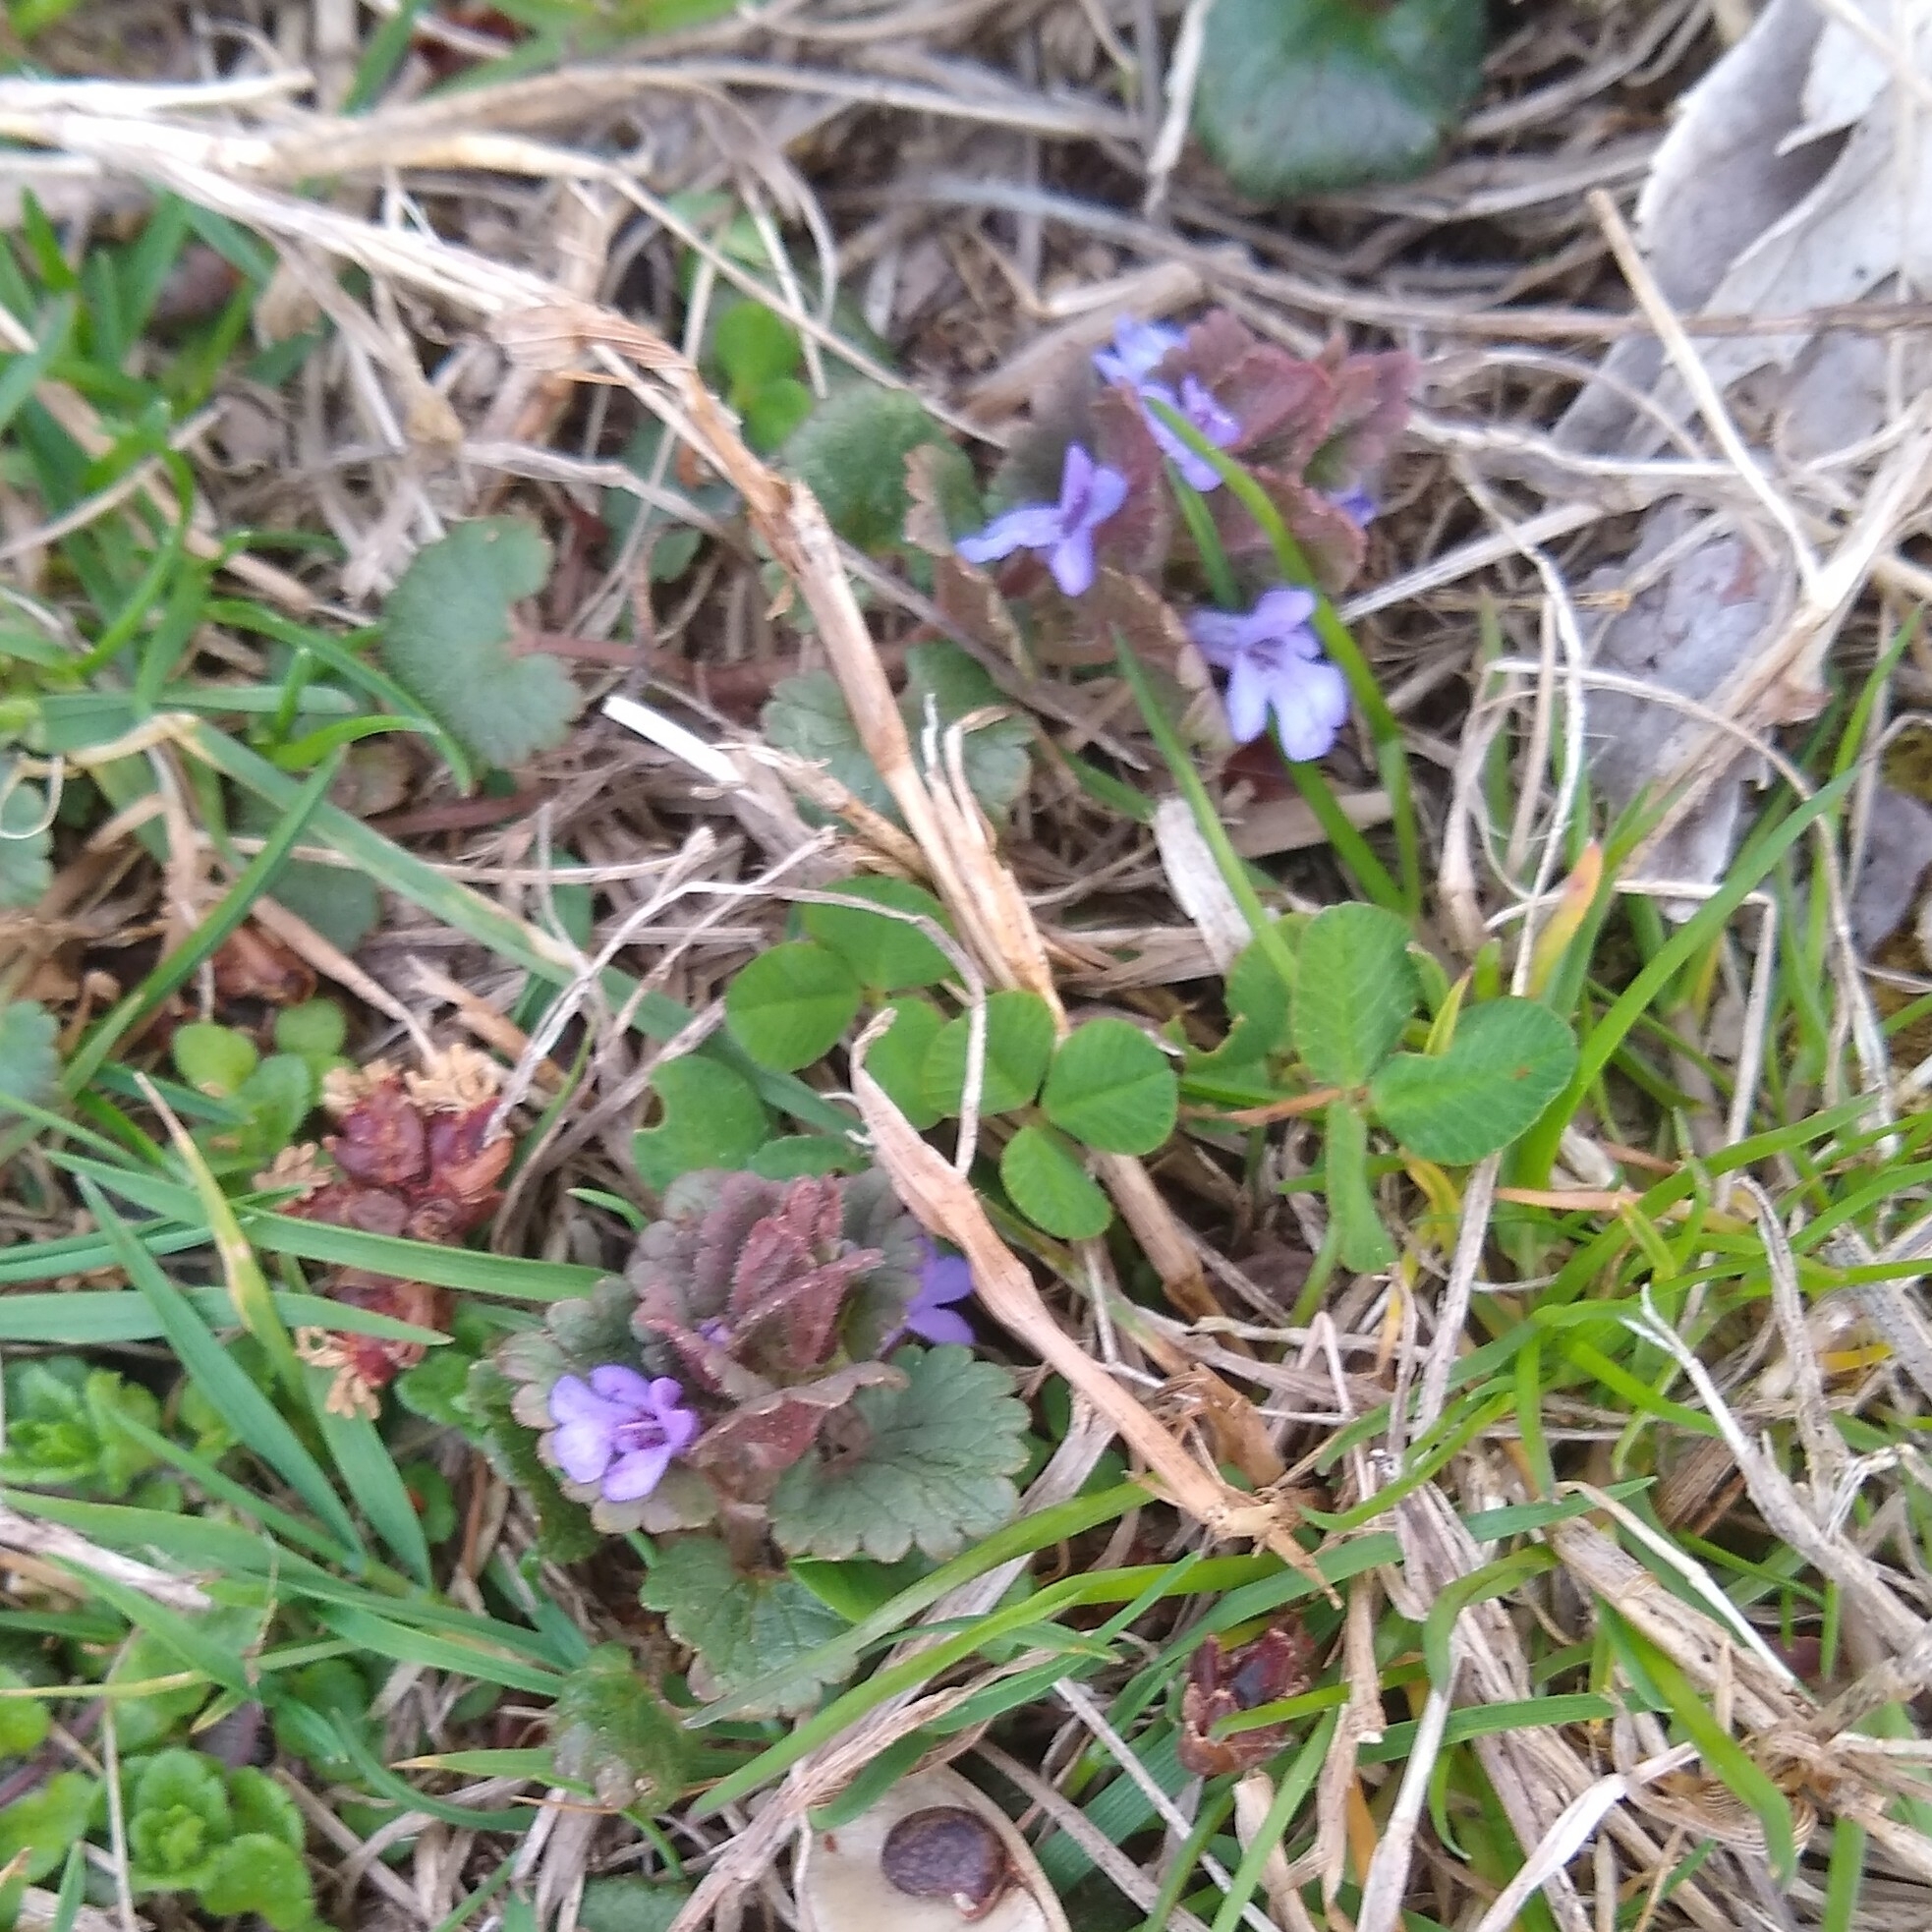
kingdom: Plantae
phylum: Tracheophyta
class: Magnoliopsida
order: Lamiales
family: Lamiaceae
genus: Glechoma
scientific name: Glechoma hederacea
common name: Ground ivy
